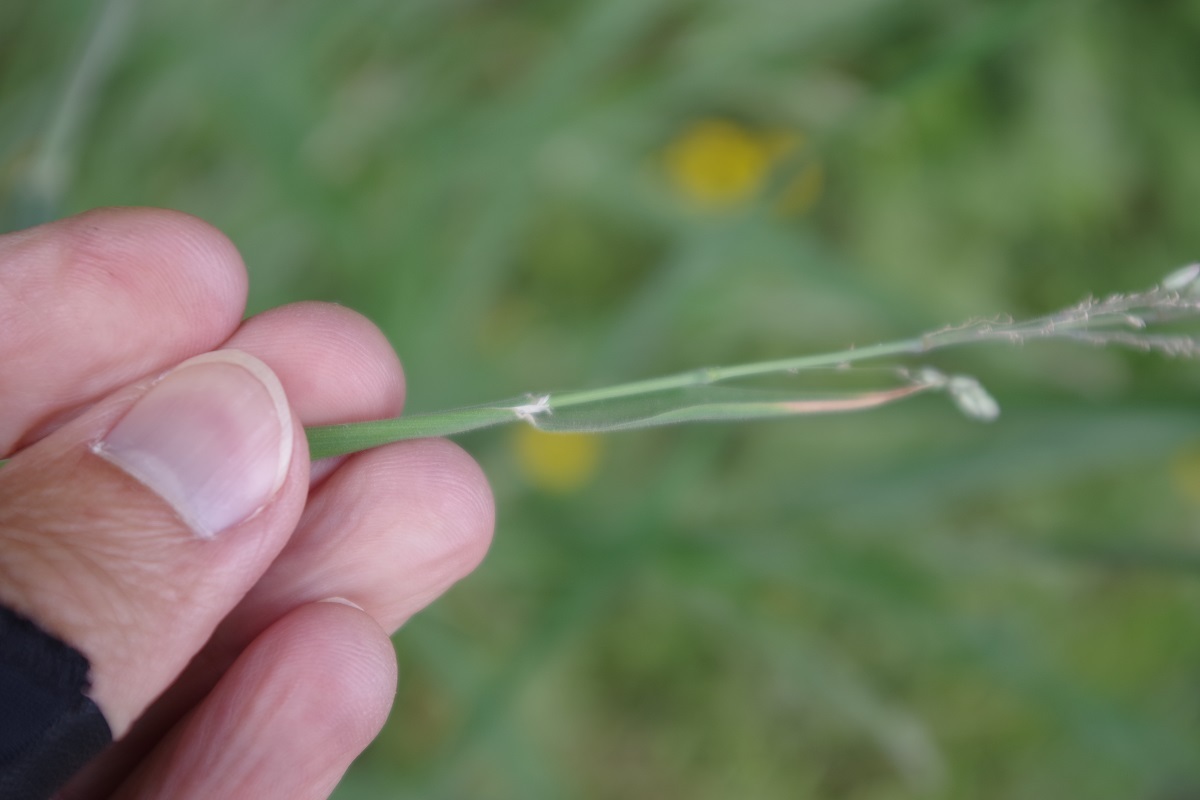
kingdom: Plantae
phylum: Tracheophyta
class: Liliopsida
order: Poales
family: Poaceae
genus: Holcus
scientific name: Holcus lanatus
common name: Yorkshire-fog
